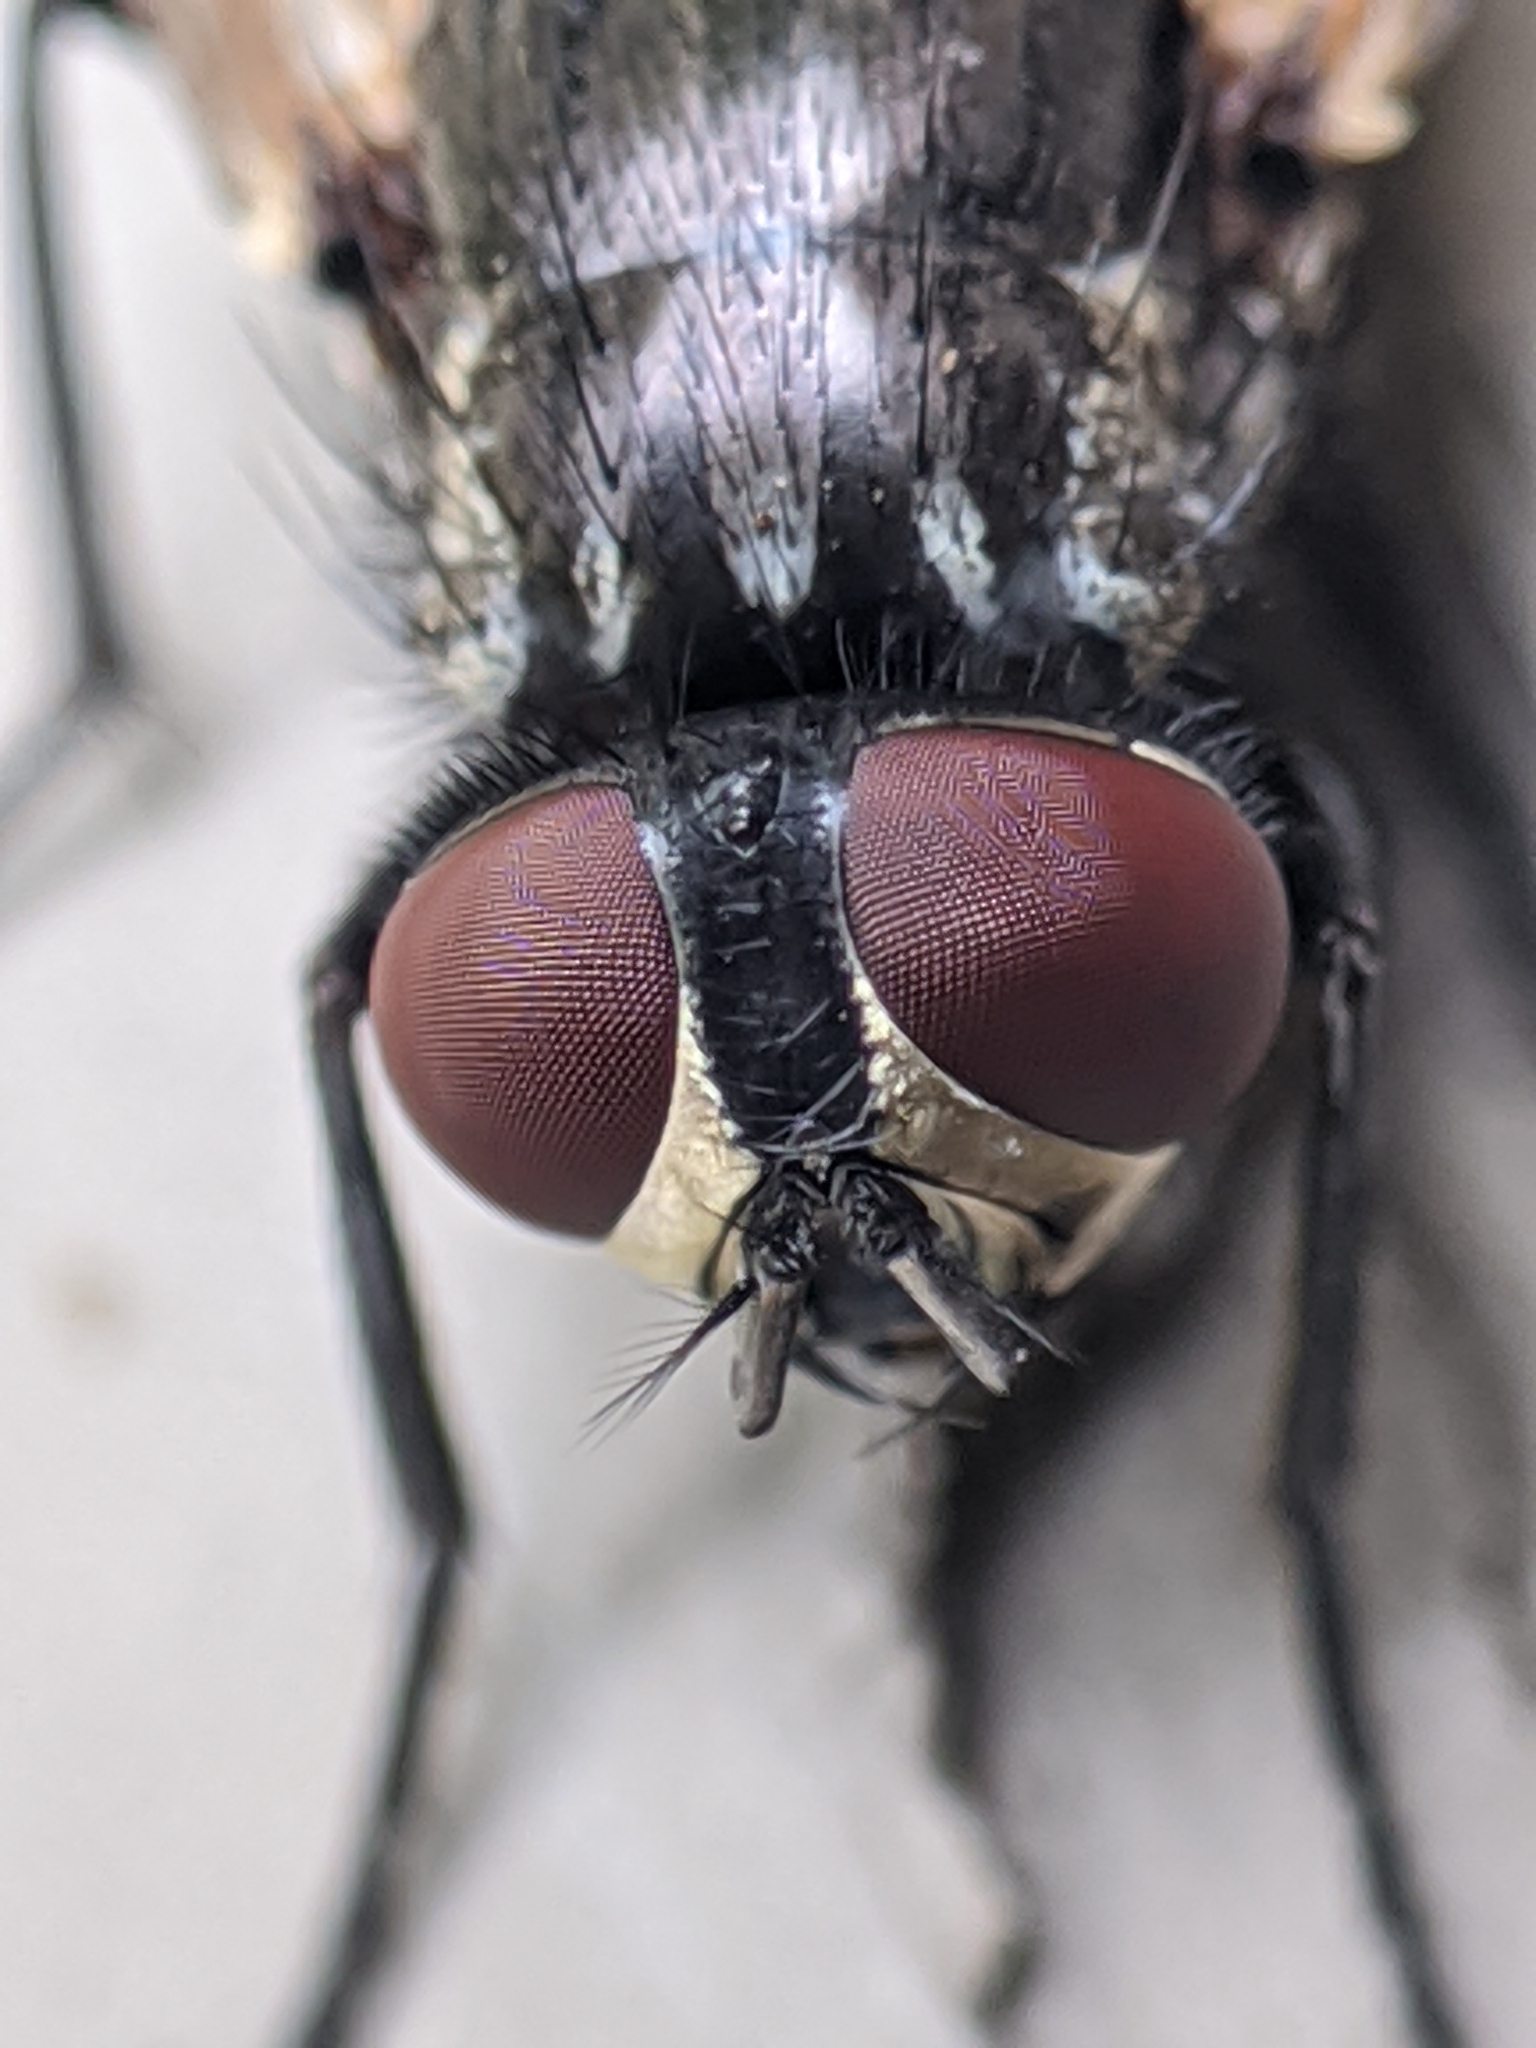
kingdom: Animalia
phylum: Arthropoda
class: Insecta
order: Diptera
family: Muscidae
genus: Musca
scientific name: Musca domestica
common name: House fly
